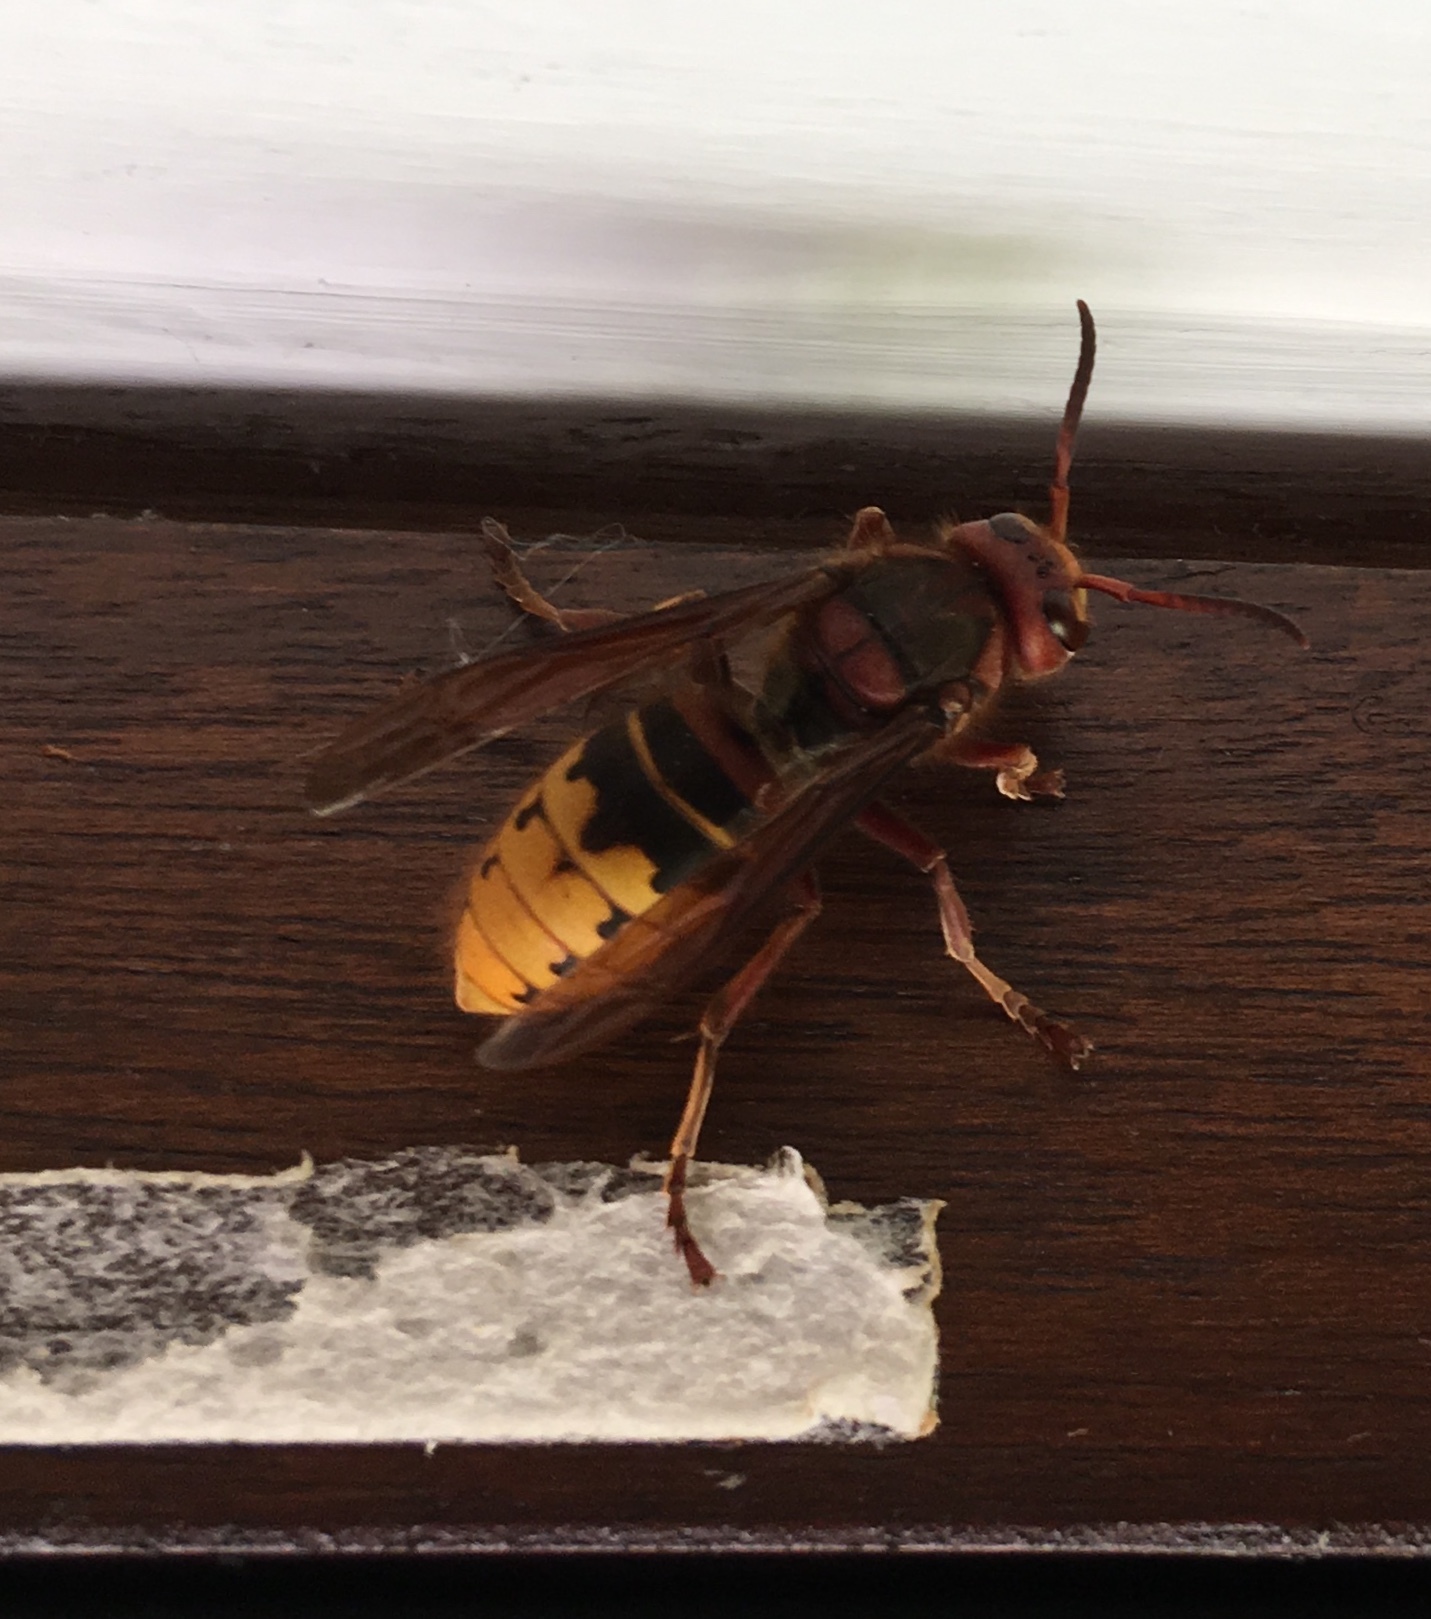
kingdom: Animalia
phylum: Arthropoda
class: Insecta
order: Hymenoptera
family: Vespidae
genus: Vespa
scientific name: Vespa crabro
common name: Hornet
